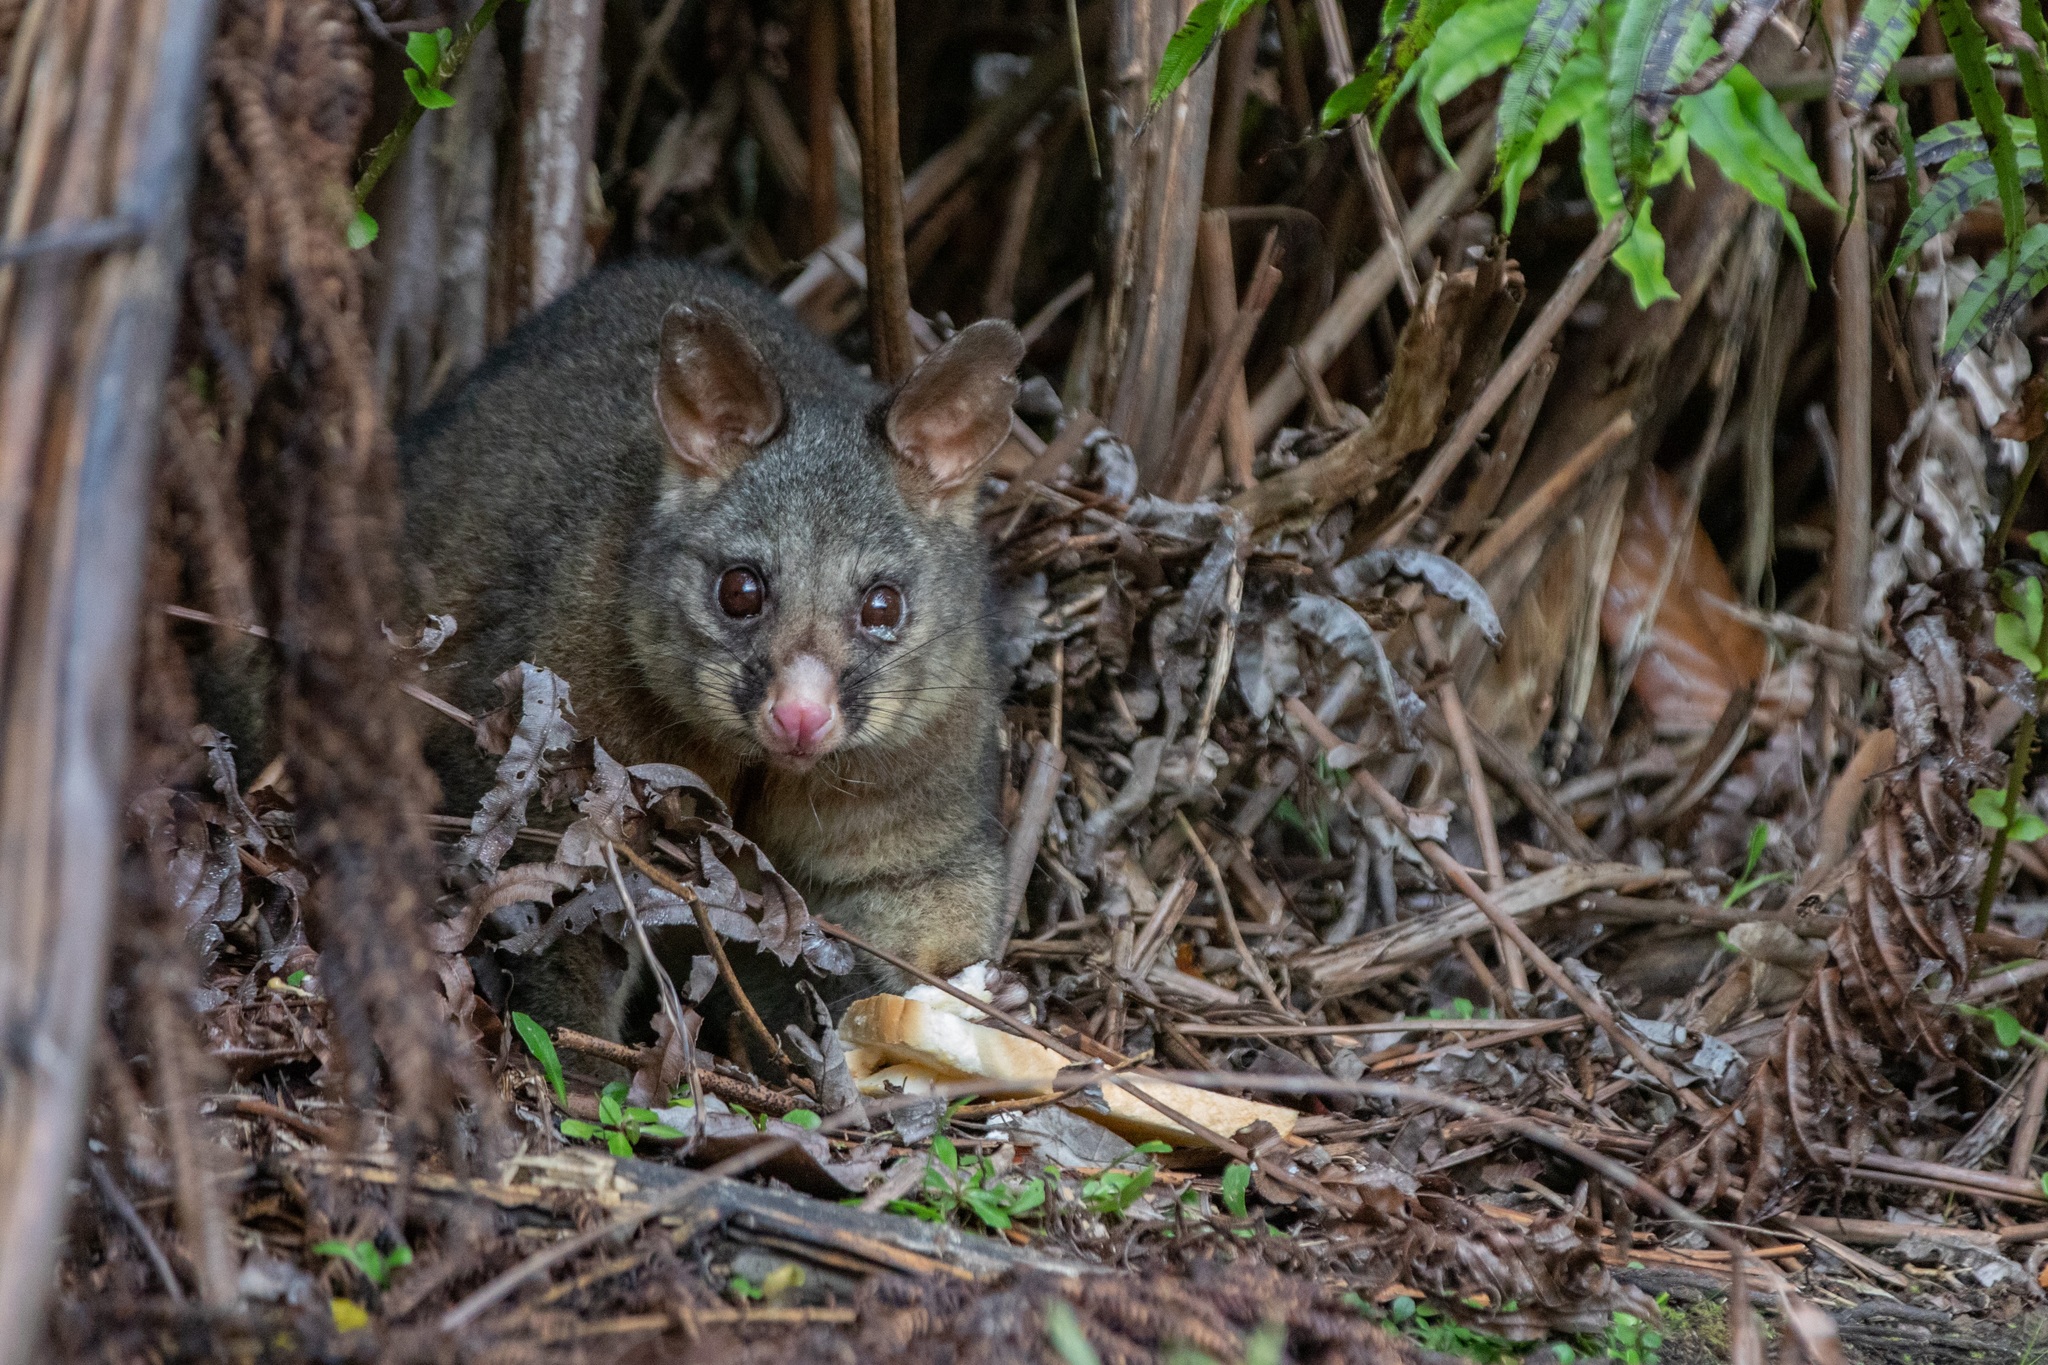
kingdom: Animalia
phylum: Chordata
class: Mammalia
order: Diprotodontia
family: Phalangeridae
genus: Trichosurus
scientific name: Trichosurus vulpecula
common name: Common brushtail
